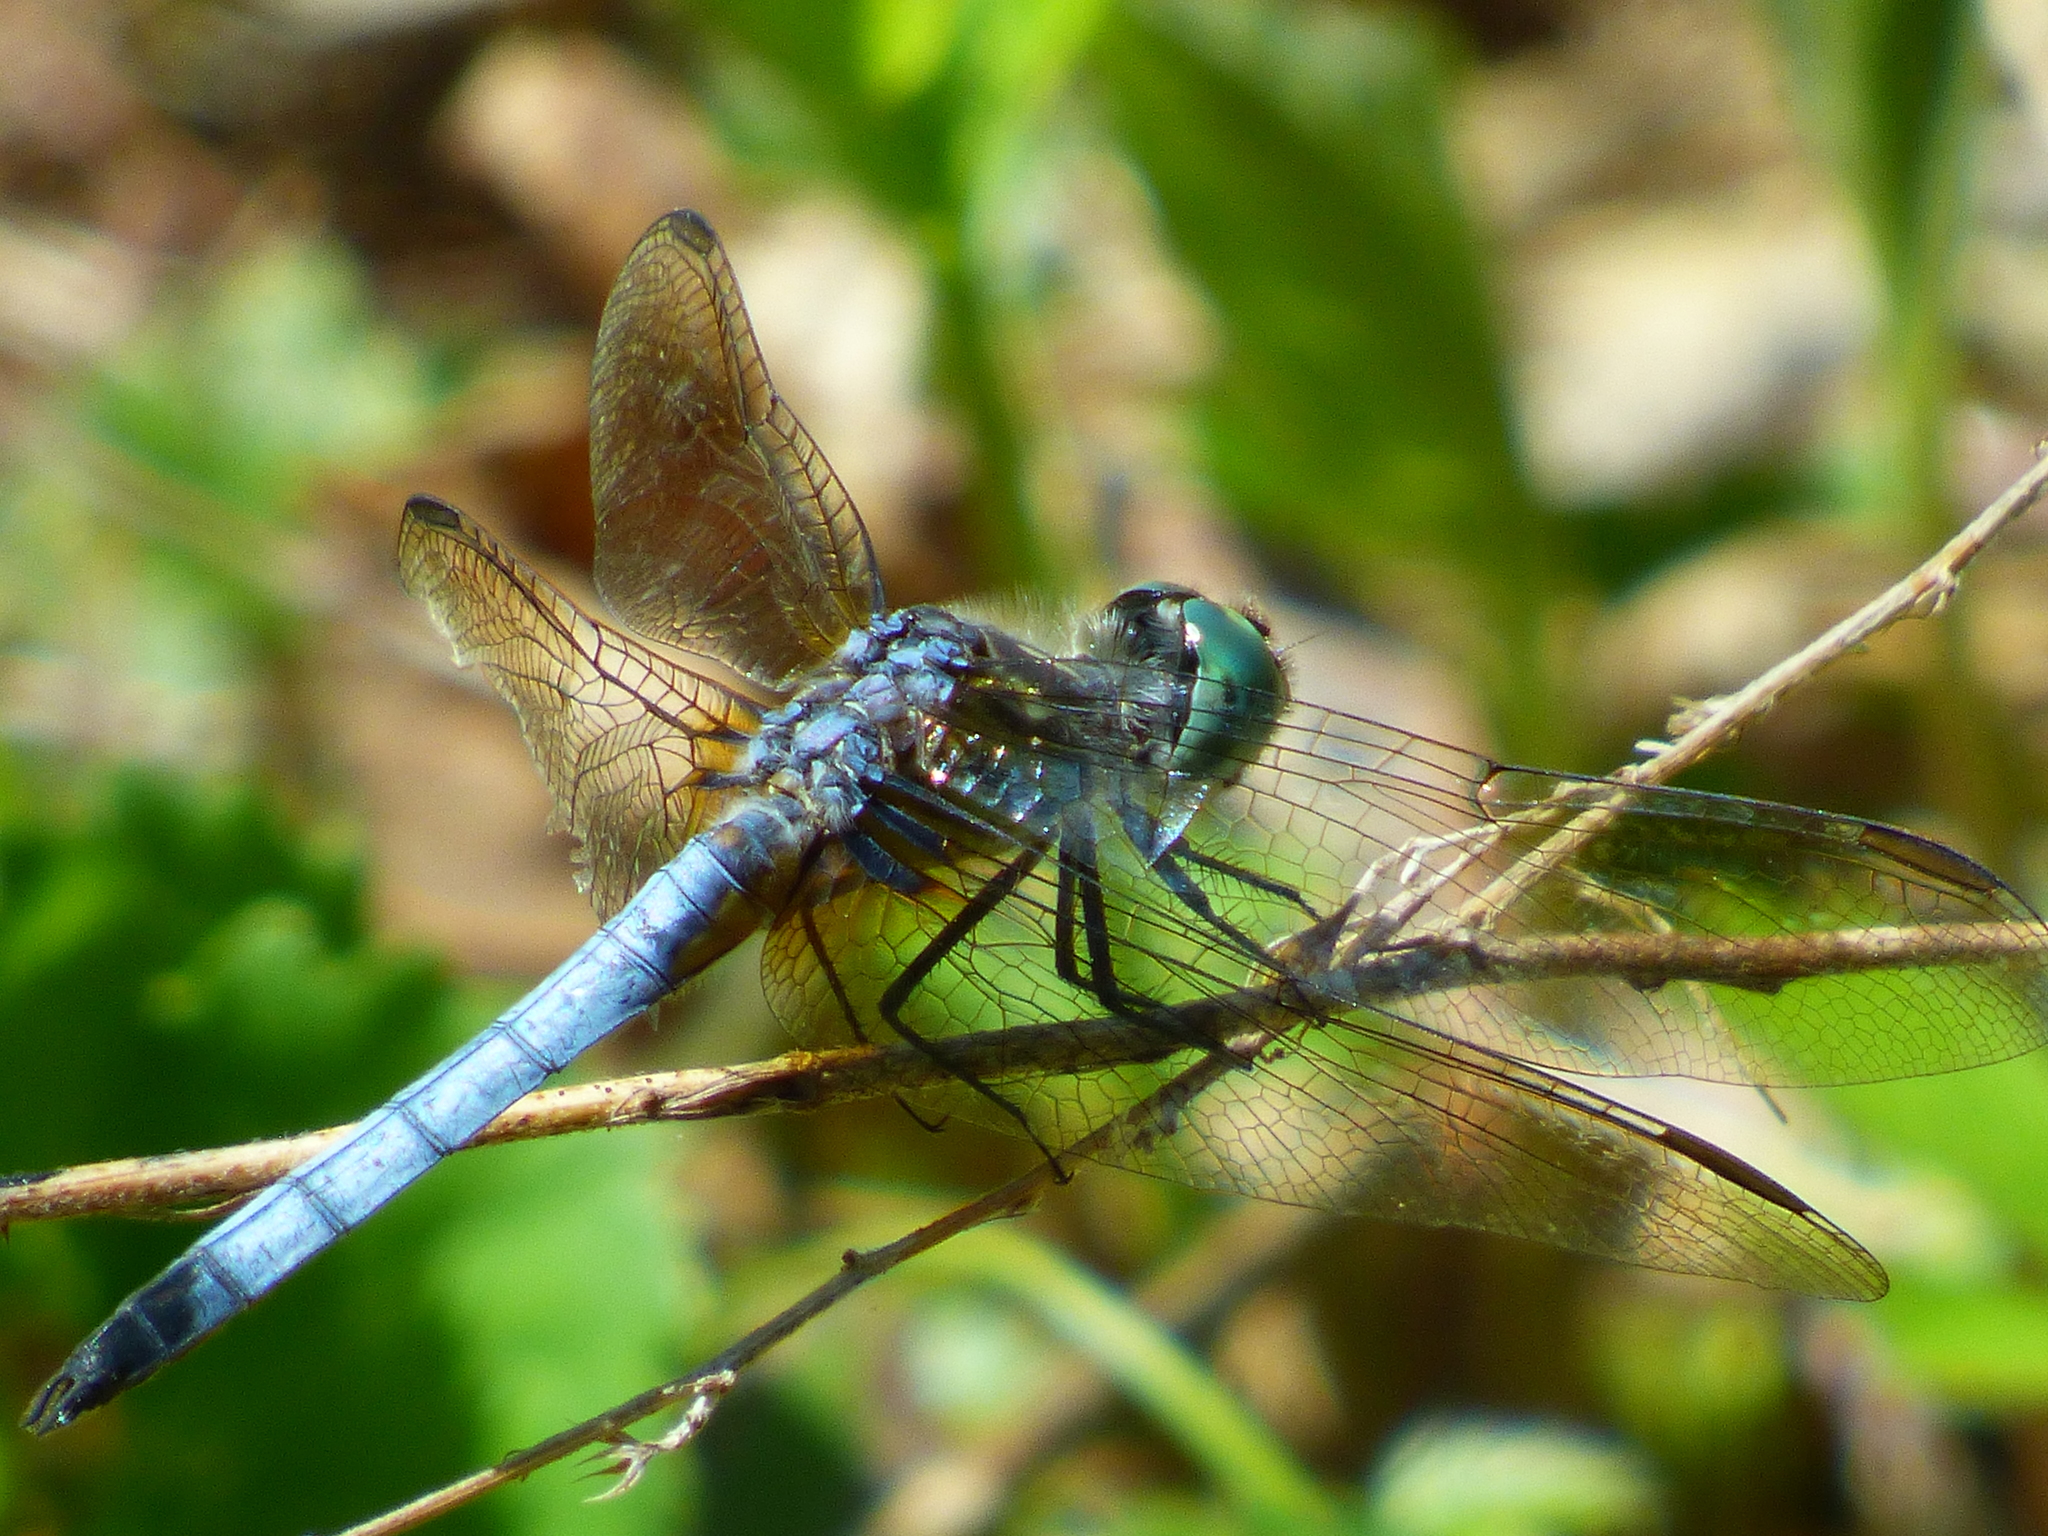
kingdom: Animalia
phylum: Arthropoda
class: Insecta
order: Odonata
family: Libellulidae
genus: Pachydiplax
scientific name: Pachydiplax longipennis
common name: Blue dasher
